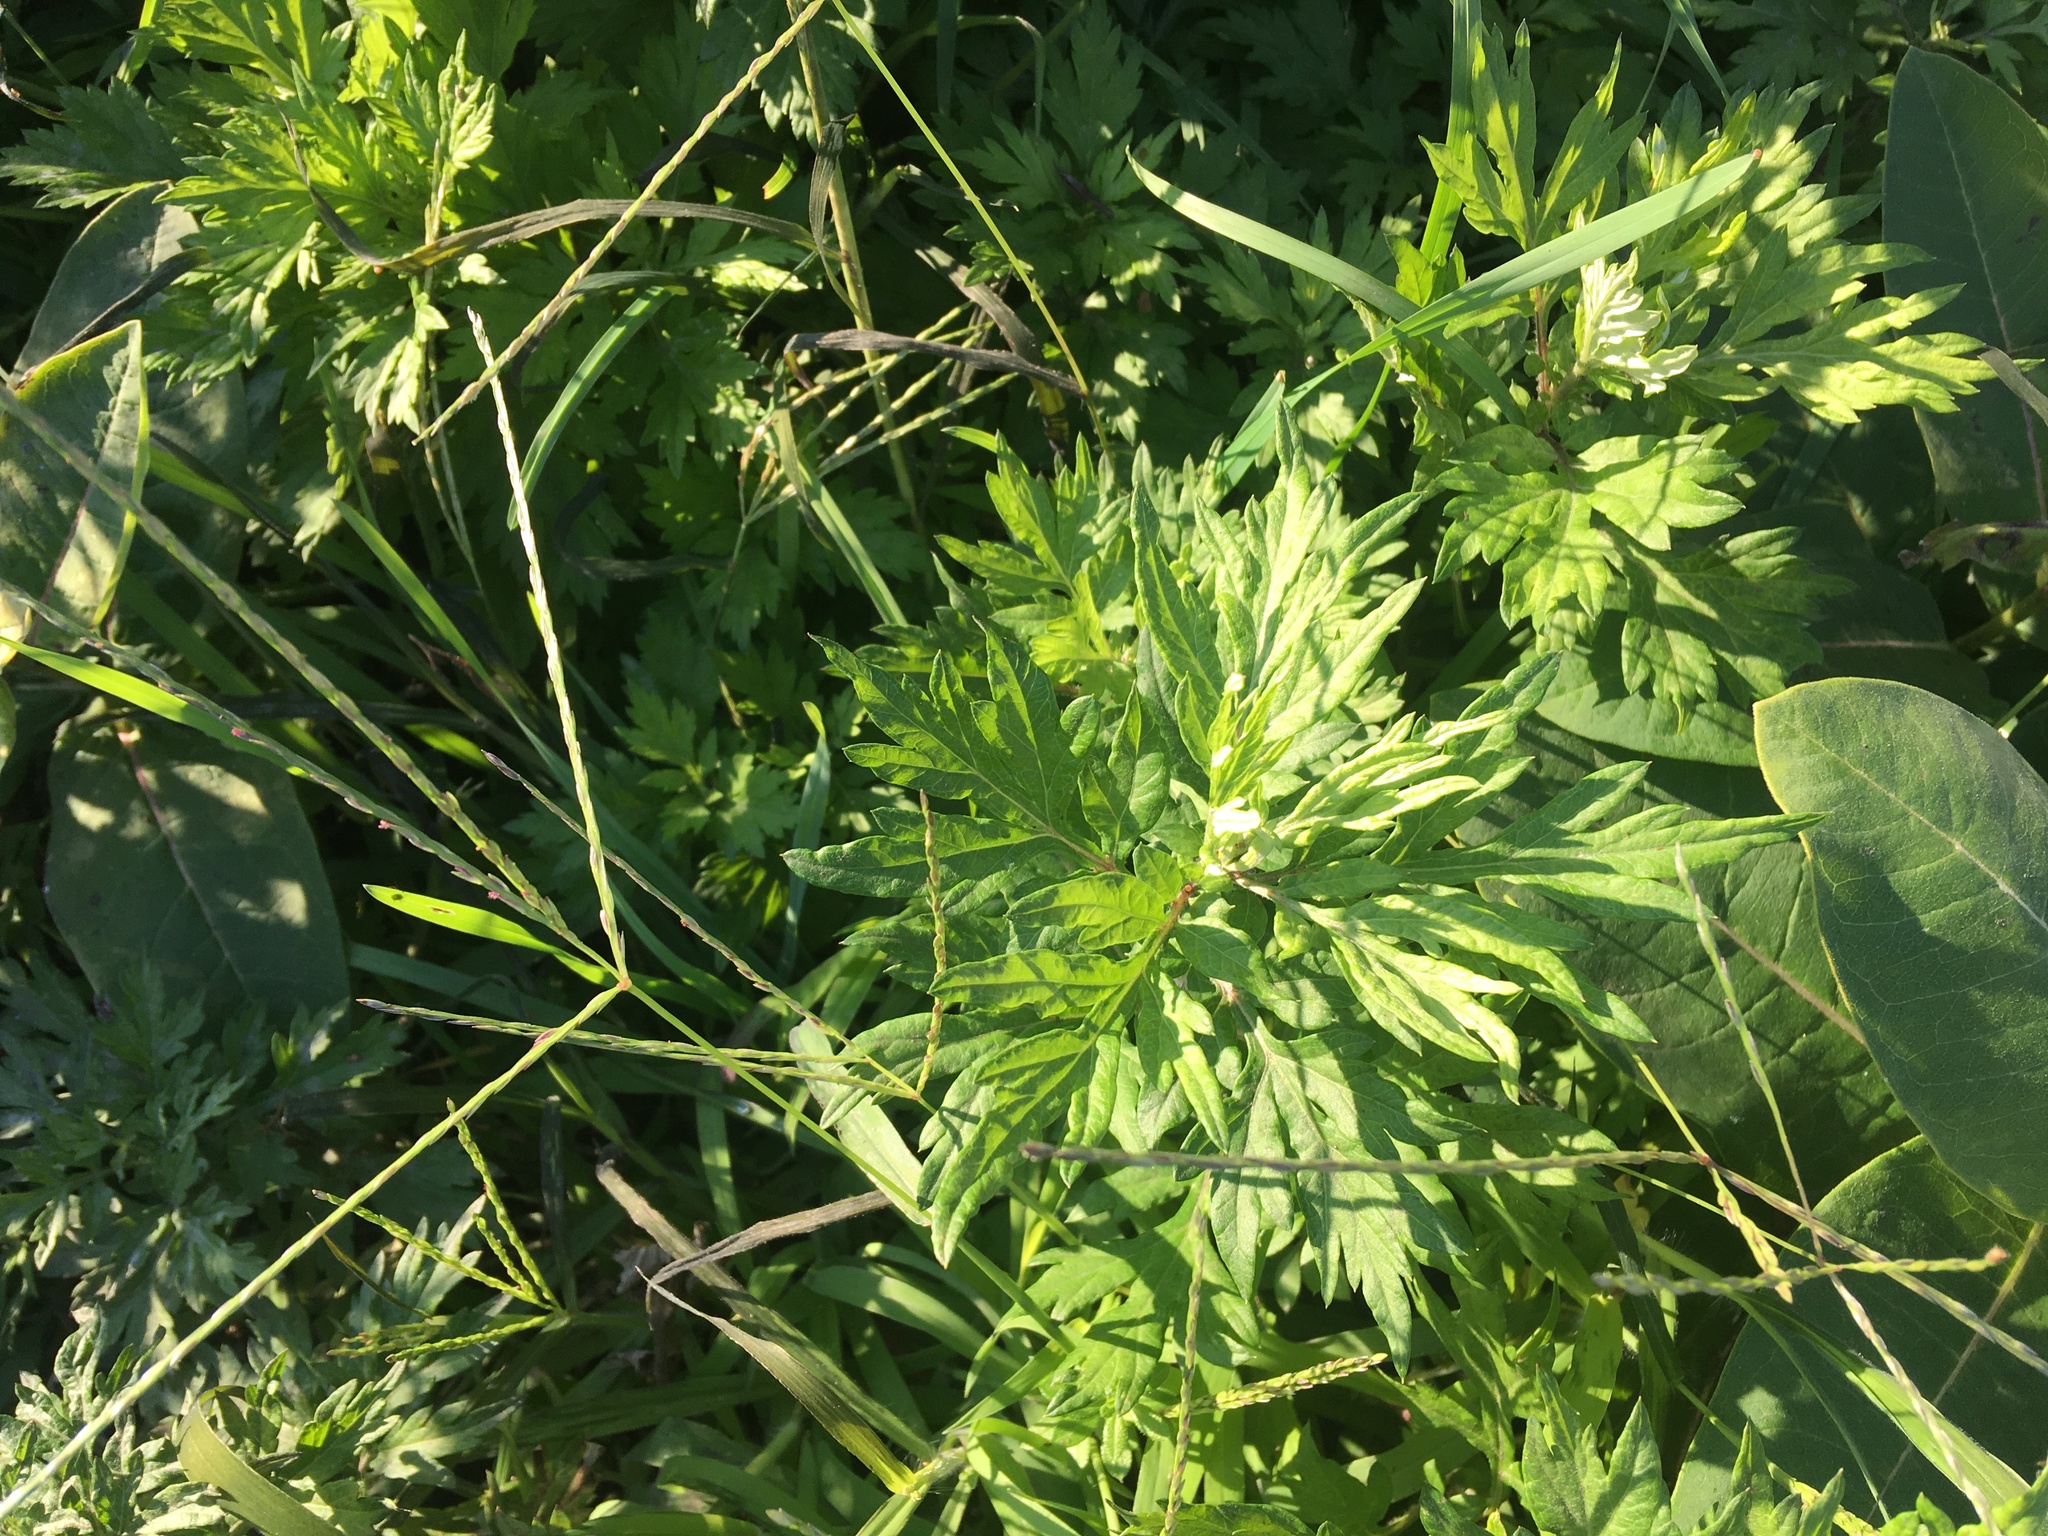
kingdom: Plantae
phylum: Tracheophyta
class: Magnoliopsida
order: Asterales
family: Asteraceae
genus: Artemisia
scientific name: Artemisia vulgaris
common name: Mugwort
